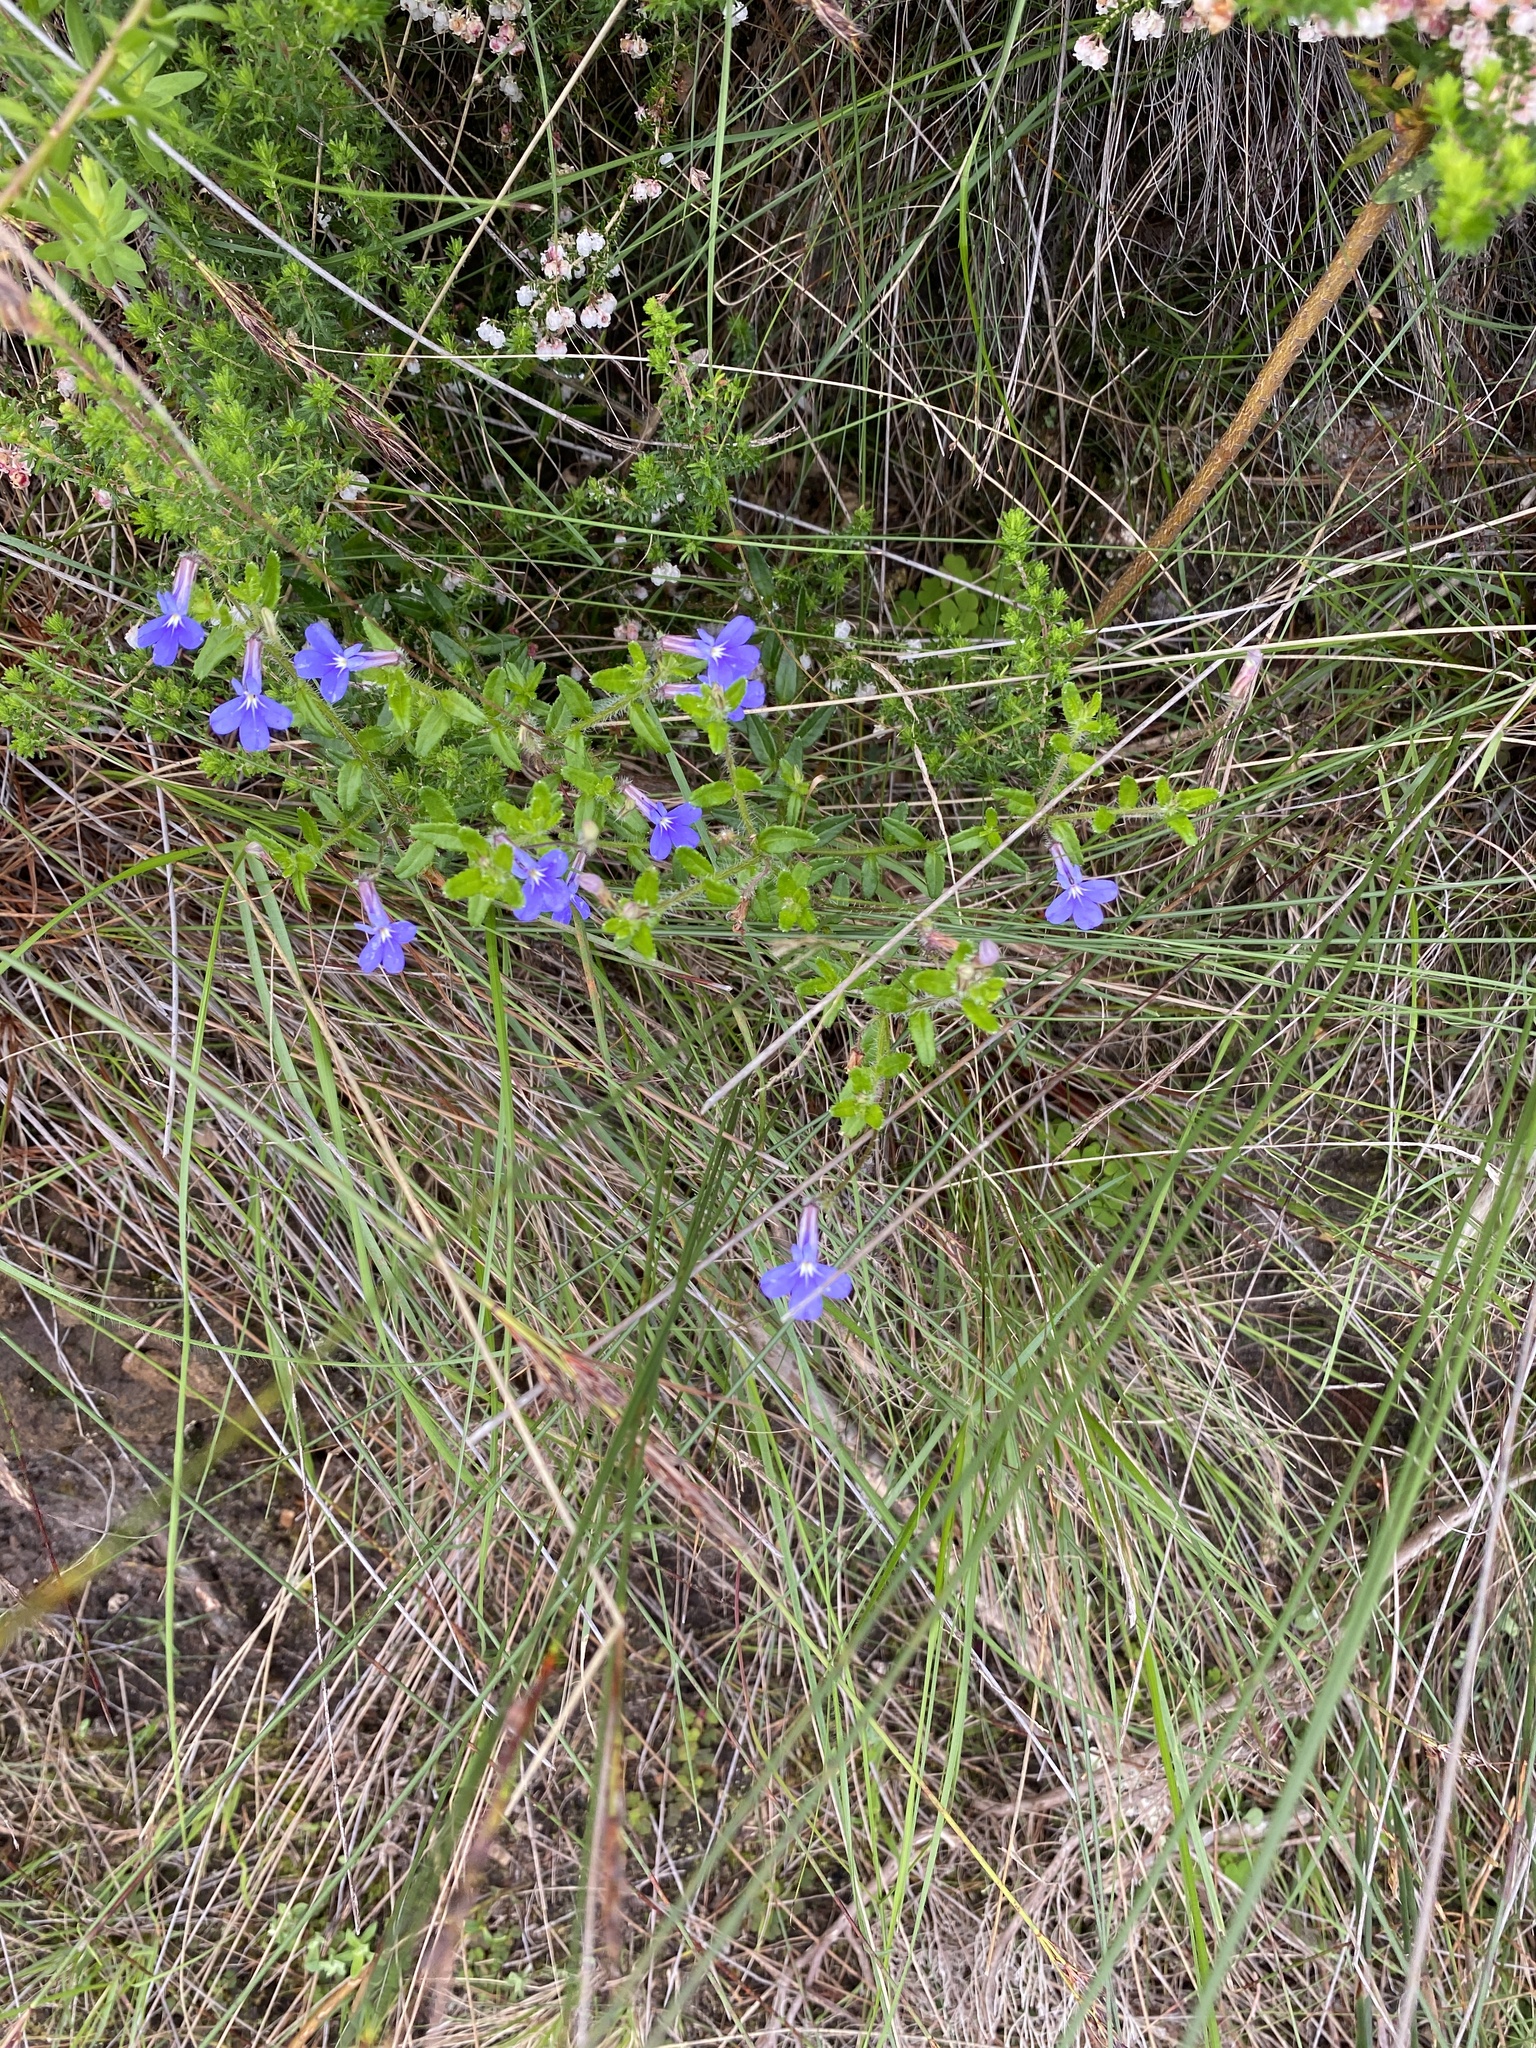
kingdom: Plantae
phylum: Tracheophyta
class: Magnoliopsida
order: Asterales
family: Campanulaceae
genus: Lobelia
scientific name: Lobelia neglecta
